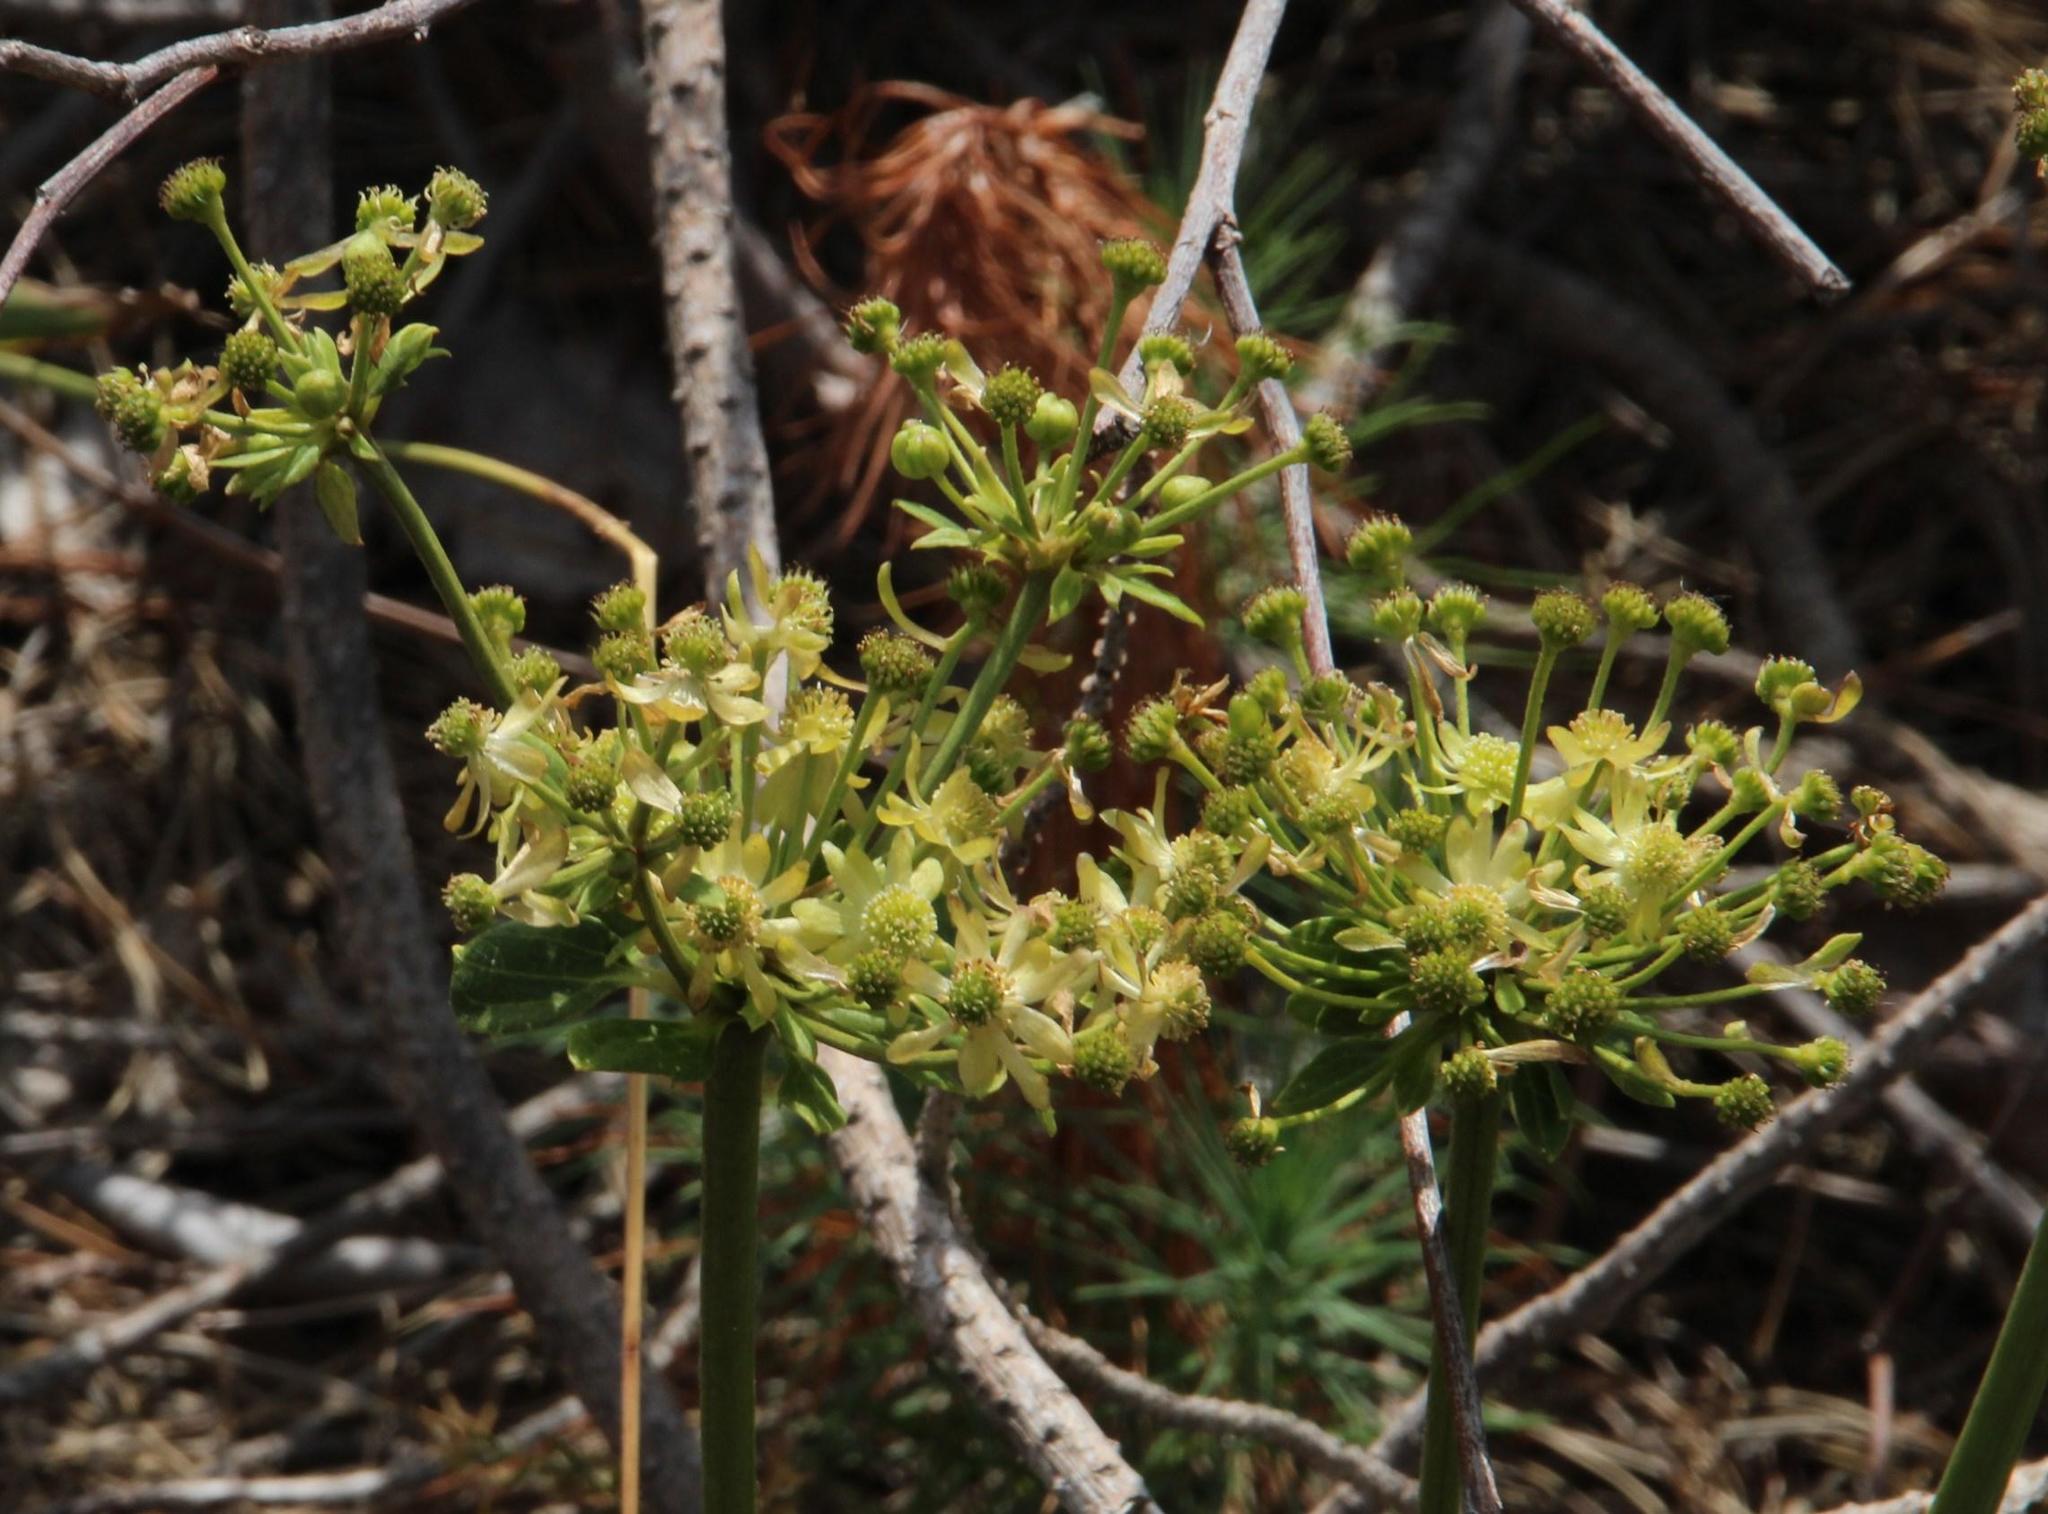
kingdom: Plantae
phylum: Tracheophyta
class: Magnoliopsida
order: Ranunculales
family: Ranunculaceae
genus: Knowltonia
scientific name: Knowltonia vesicatoria
